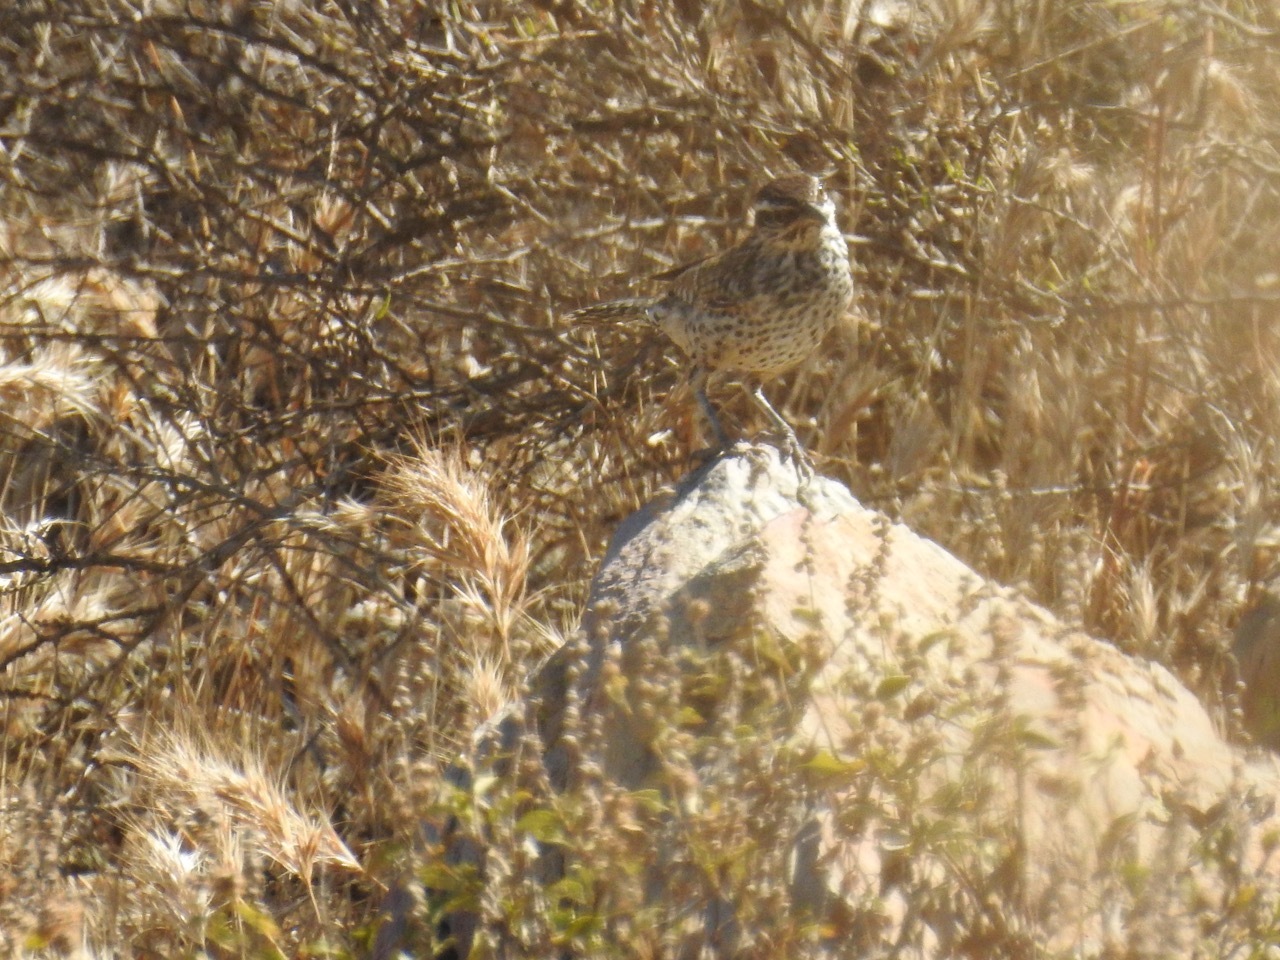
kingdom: Animalia
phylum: Chordata
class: Aves
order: Passeriformes
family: Troglodytidae
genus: Campylorhynchus
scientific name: Campylorhynchus brunneicapillus
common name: Cactus wren
